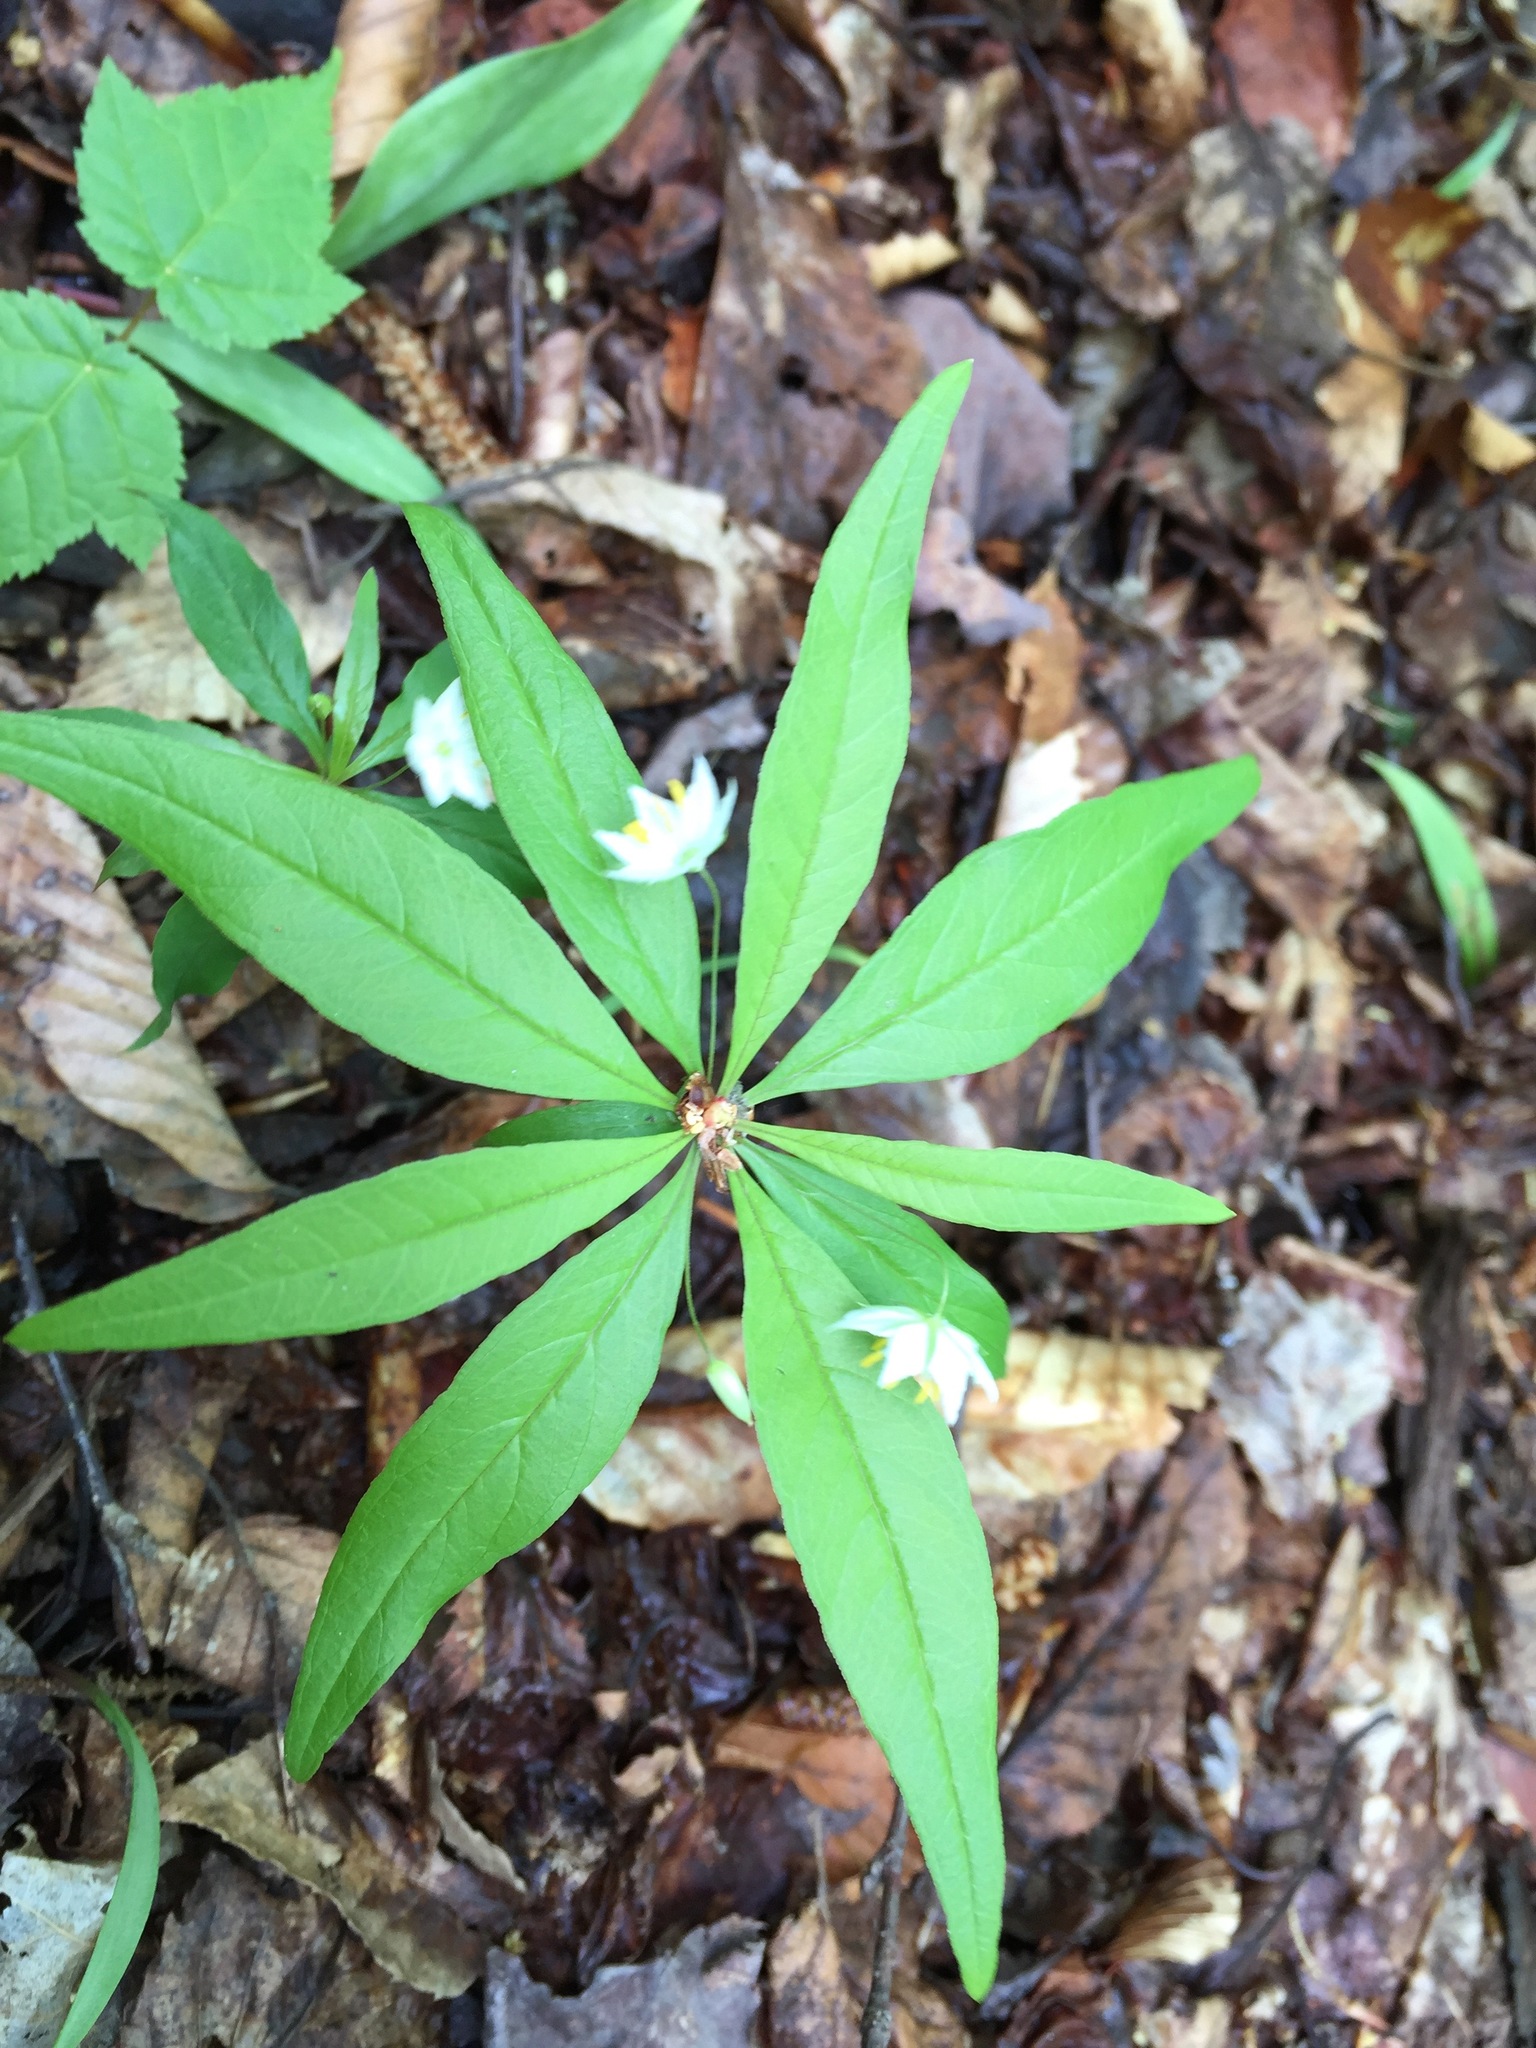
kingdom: Plantae
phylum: Tracheophyta
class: Magnoliopsida
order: Ericales
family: Primulaceae
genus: Lysimachia
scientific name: Lysimachia borealis
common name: American starflower
